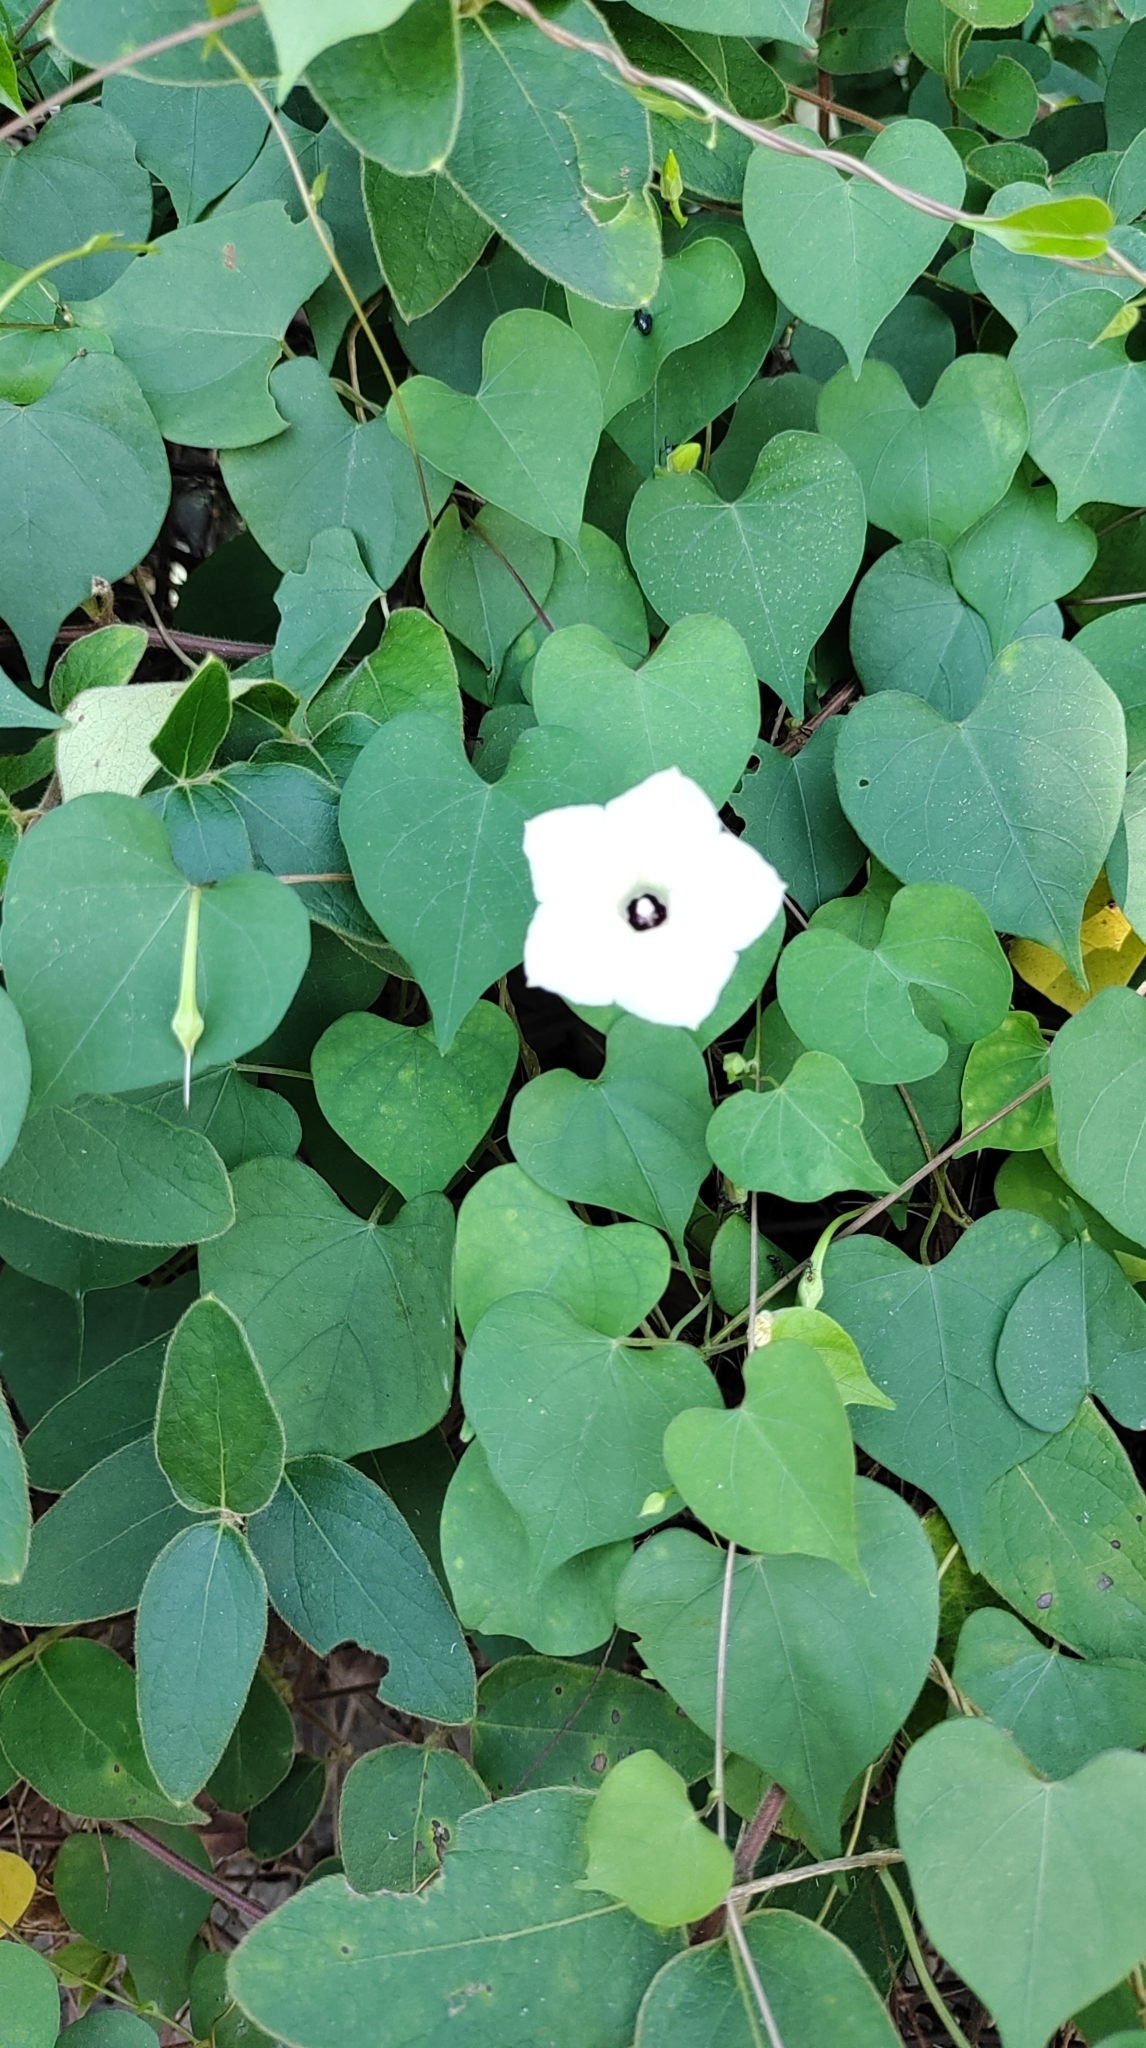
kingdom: Plantae
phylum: Tracheophyta
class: Magnoliopsida
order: Solanales
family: Convolvulaceae
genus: Ipomoea
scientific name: Ipomoea obscura
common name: Obscure morning-glory
